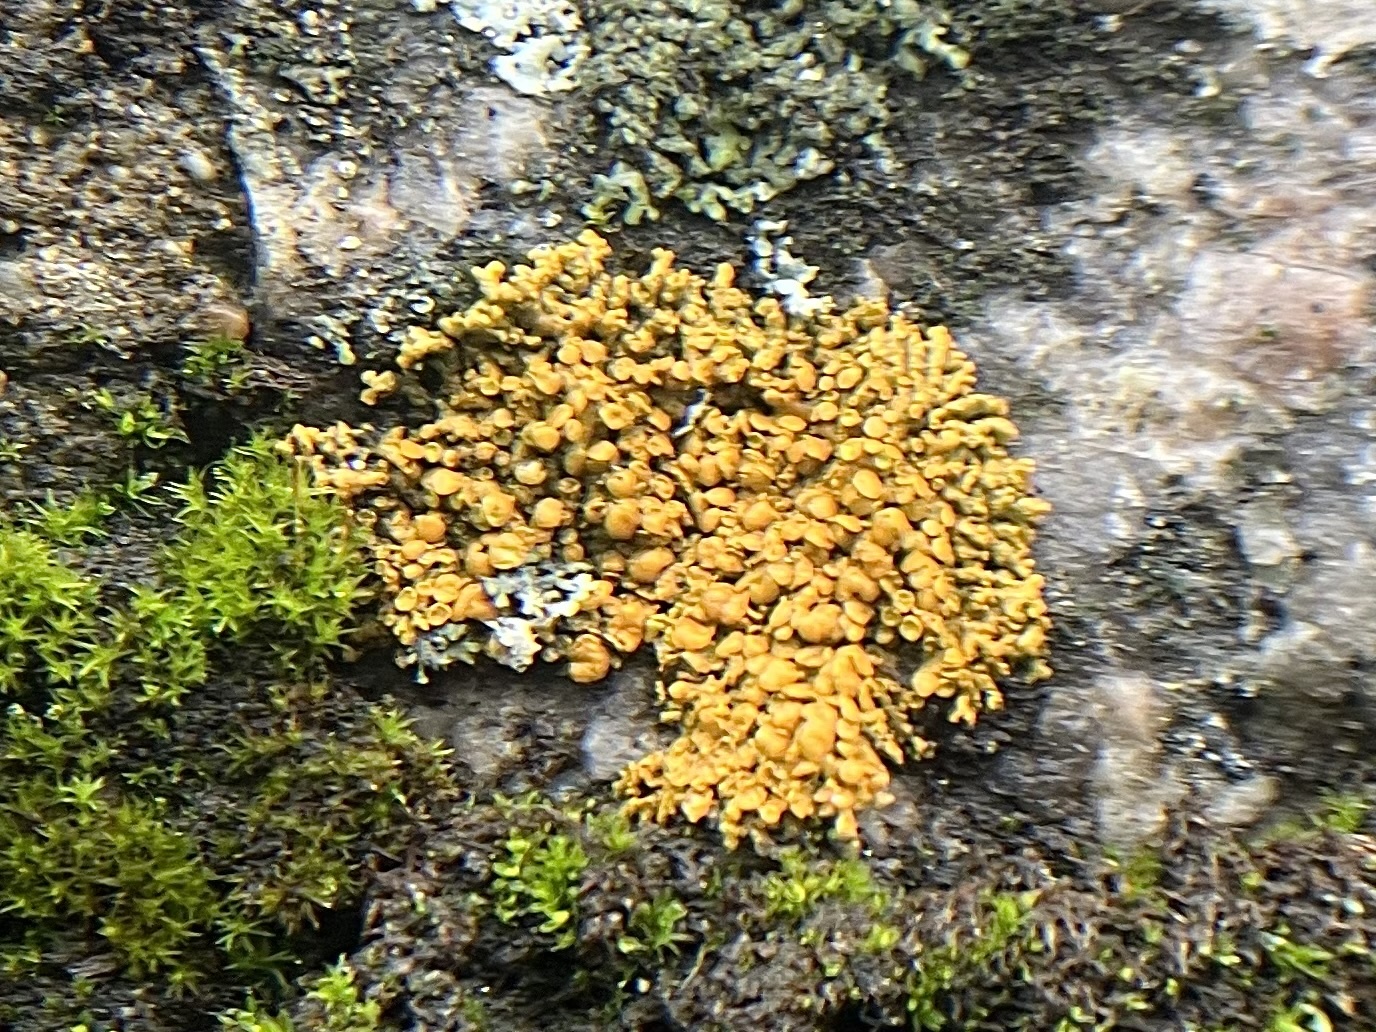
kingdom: Fungi
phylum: Ascomycota
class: Lecanoromycetes
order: Teloschistales
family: Teloschistaceae
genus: Xanthoria
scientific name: Xanthoria elegans
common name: Elegant sunburst lichen
